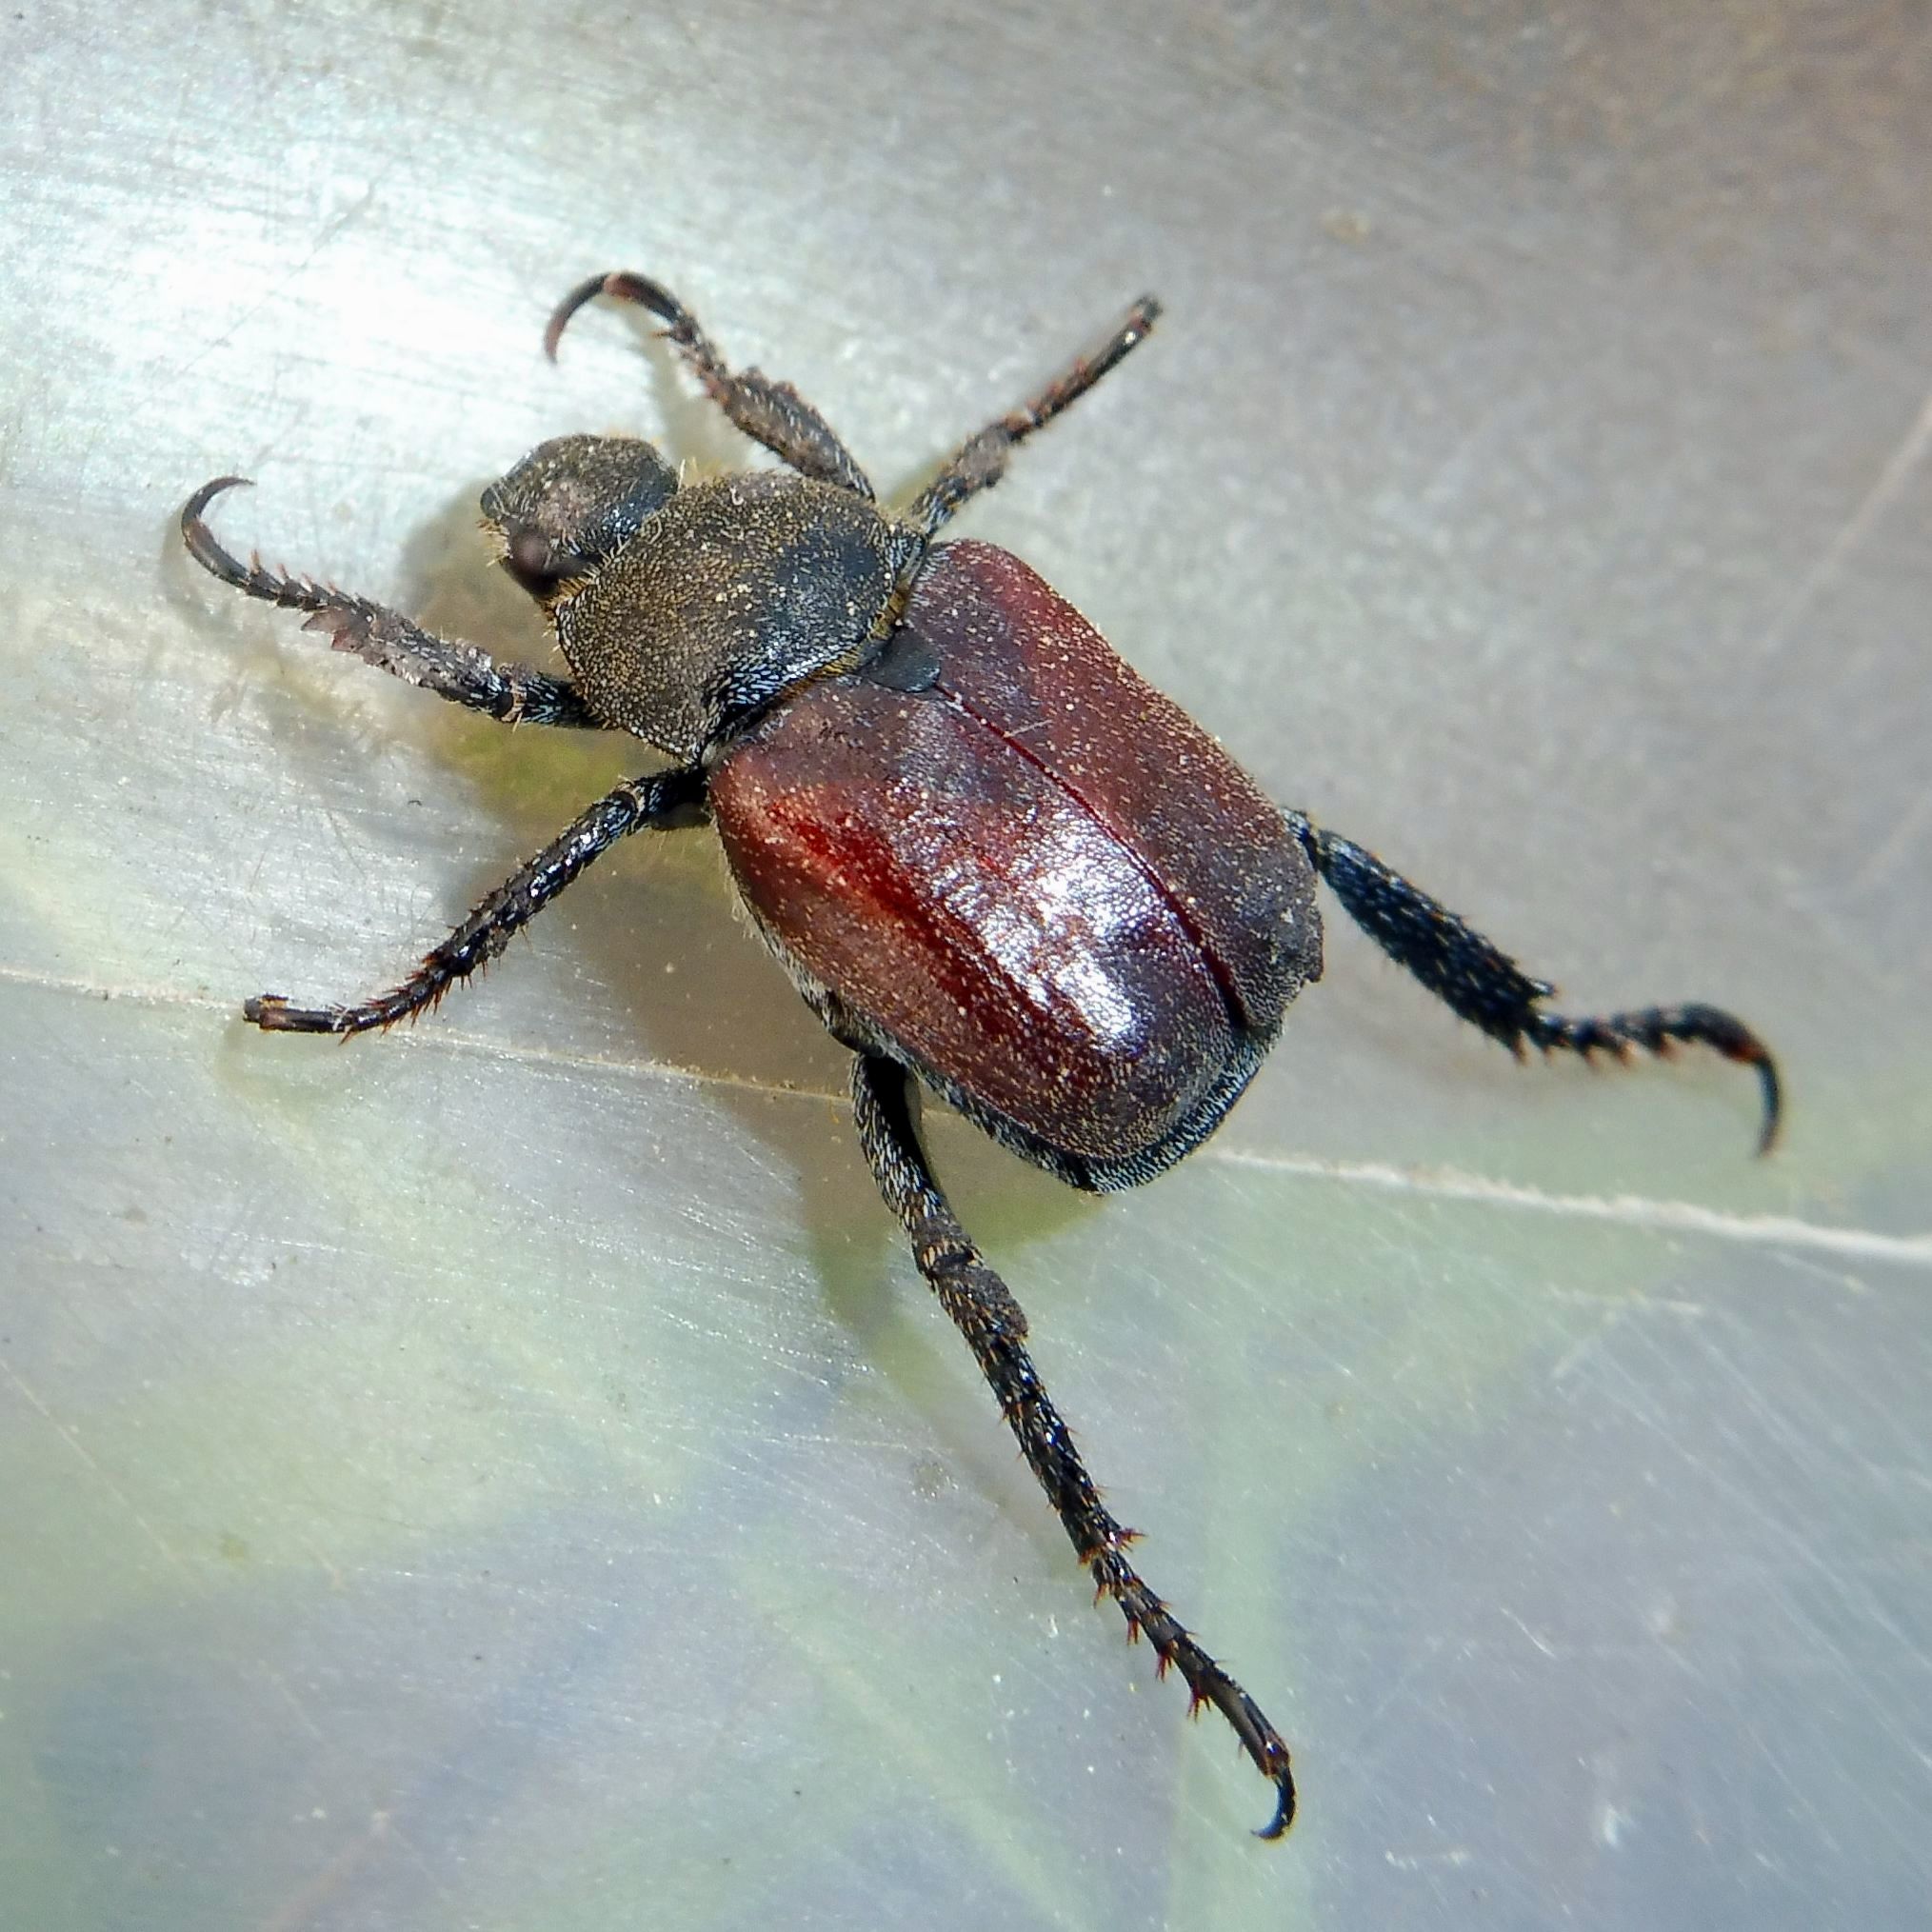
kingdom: Animalia
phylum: Arthropoda
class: Insecta
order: Coleoptera
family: Scarabaeidae
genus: Hoplia
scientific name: Hoplia philanthus
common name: Welsh chafer
